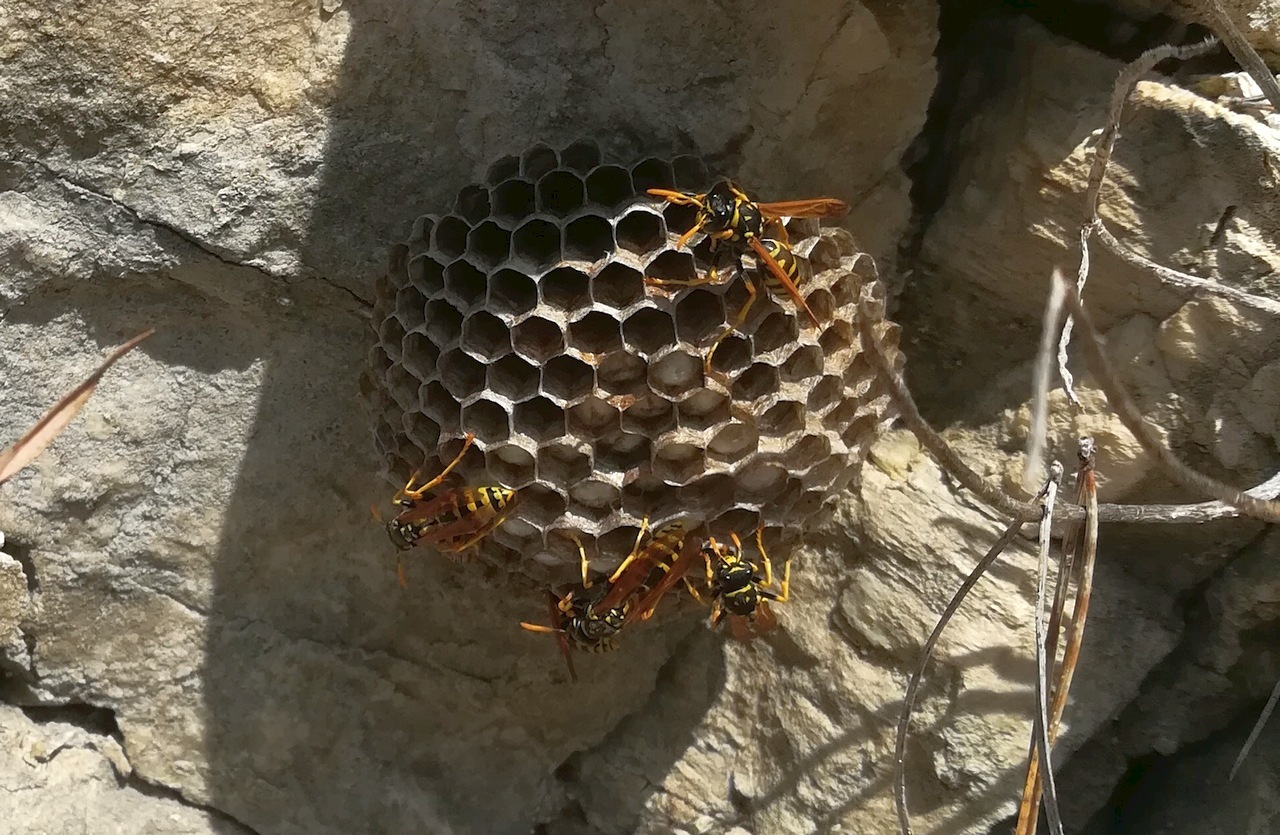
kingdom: Animalia
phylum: Arthropoda
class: Insecta
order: Hymenoptera
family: Eumenidae
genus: Polistes
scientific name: Polistes gallicus
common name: Paper wasp
